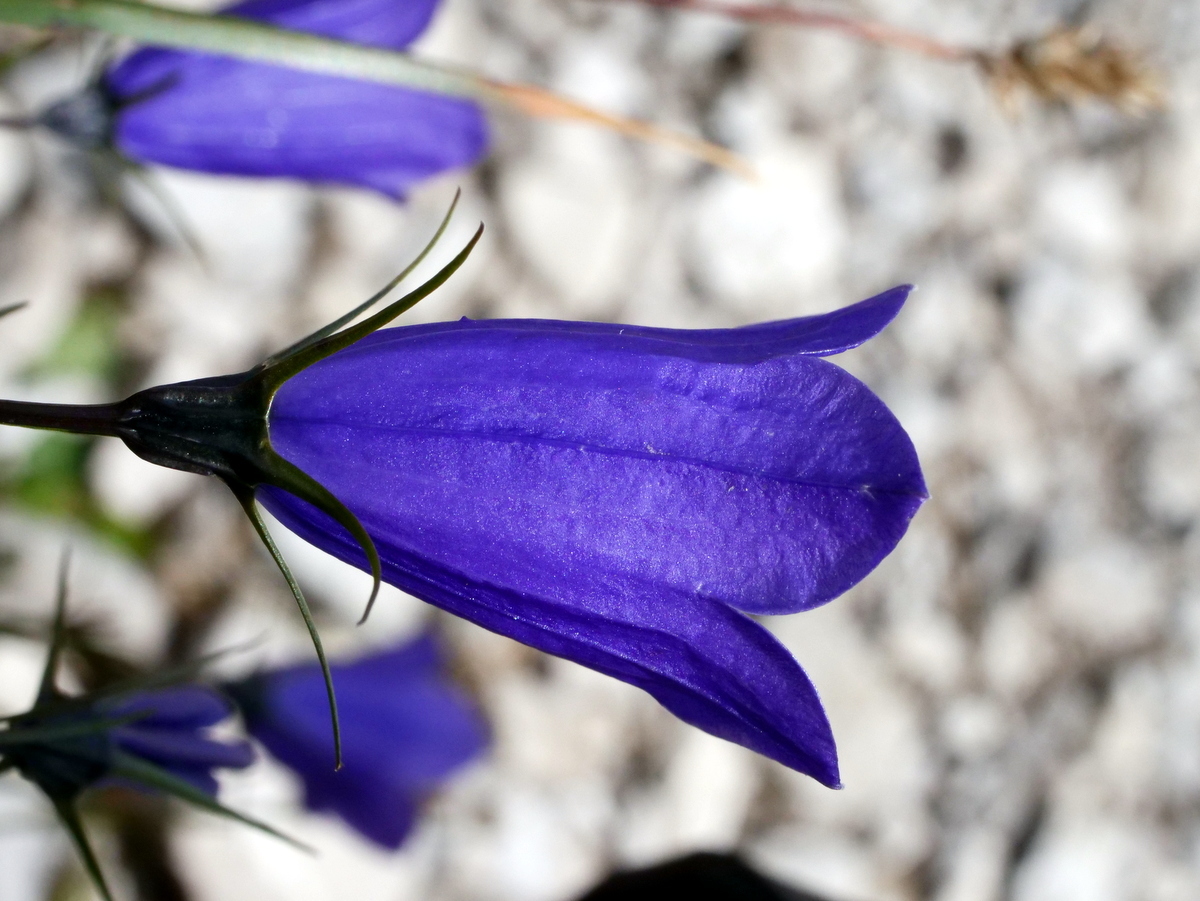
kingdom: Plantae
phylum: Tracheophyta
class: Magnoliopsida
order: Asterales
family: Campanulaceae
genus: Campanula
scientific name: Campanula scheuchzeri
